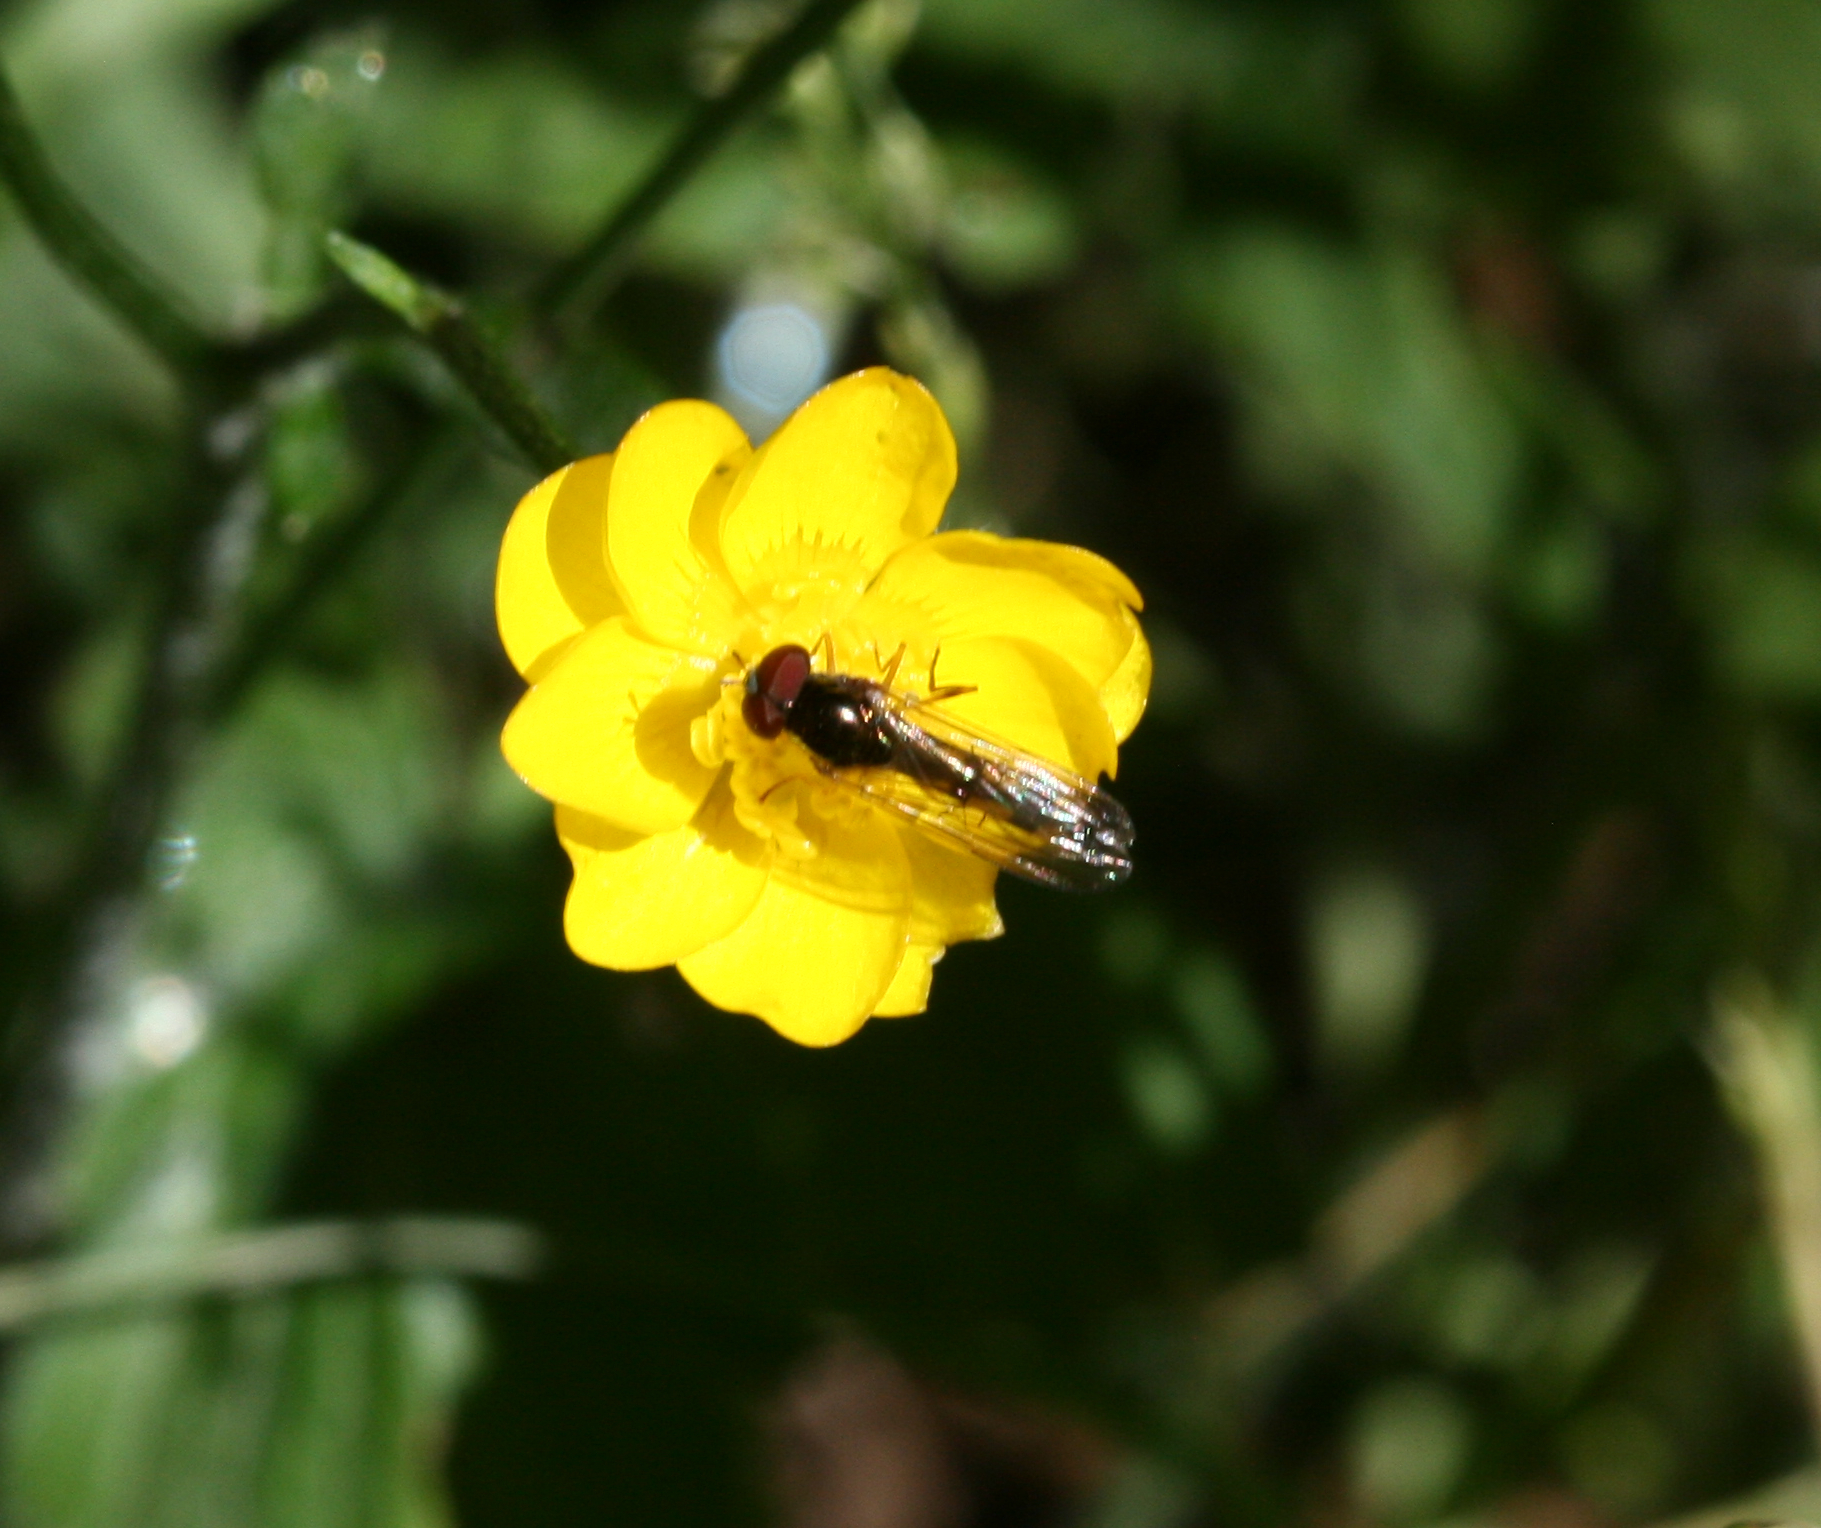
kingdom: Animalia
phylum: Arthropoda
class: Insecta
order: Diptera
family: Syrphidae
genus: Melanostoma
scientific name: Melanostoma scalare
